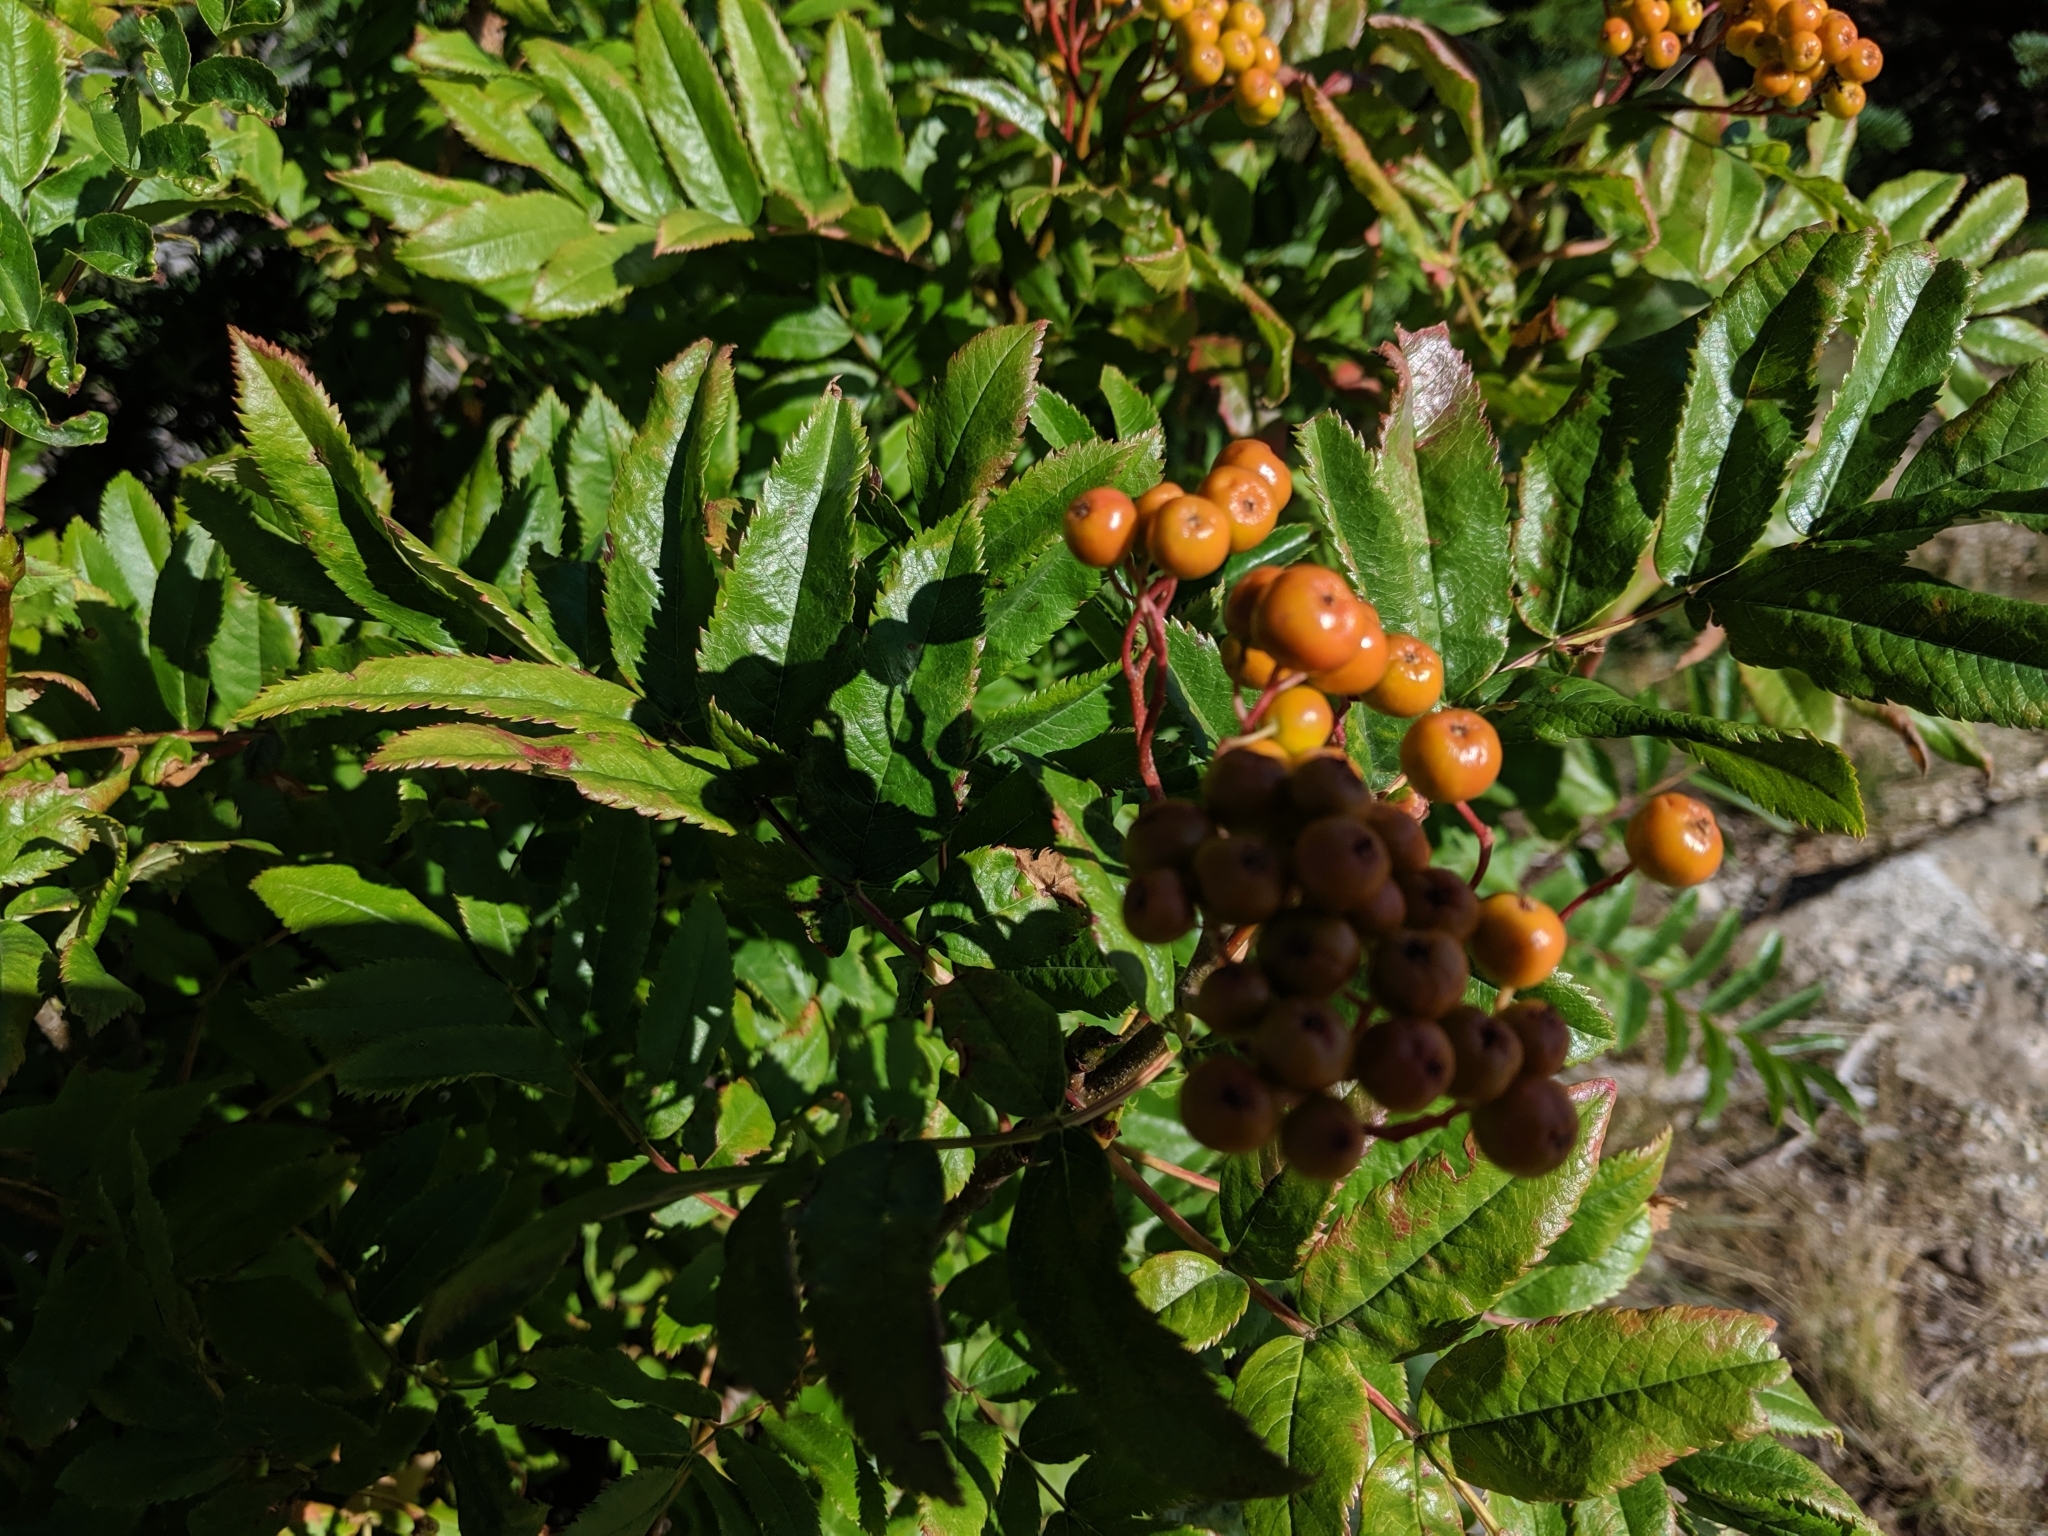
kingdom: Plantae
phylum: Tracheophyta
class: Magnoliopsida
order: Rosales
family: Rosaceae
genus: Sorbus
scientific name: Sorbus scopulina
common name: Greene's mountain-ash
